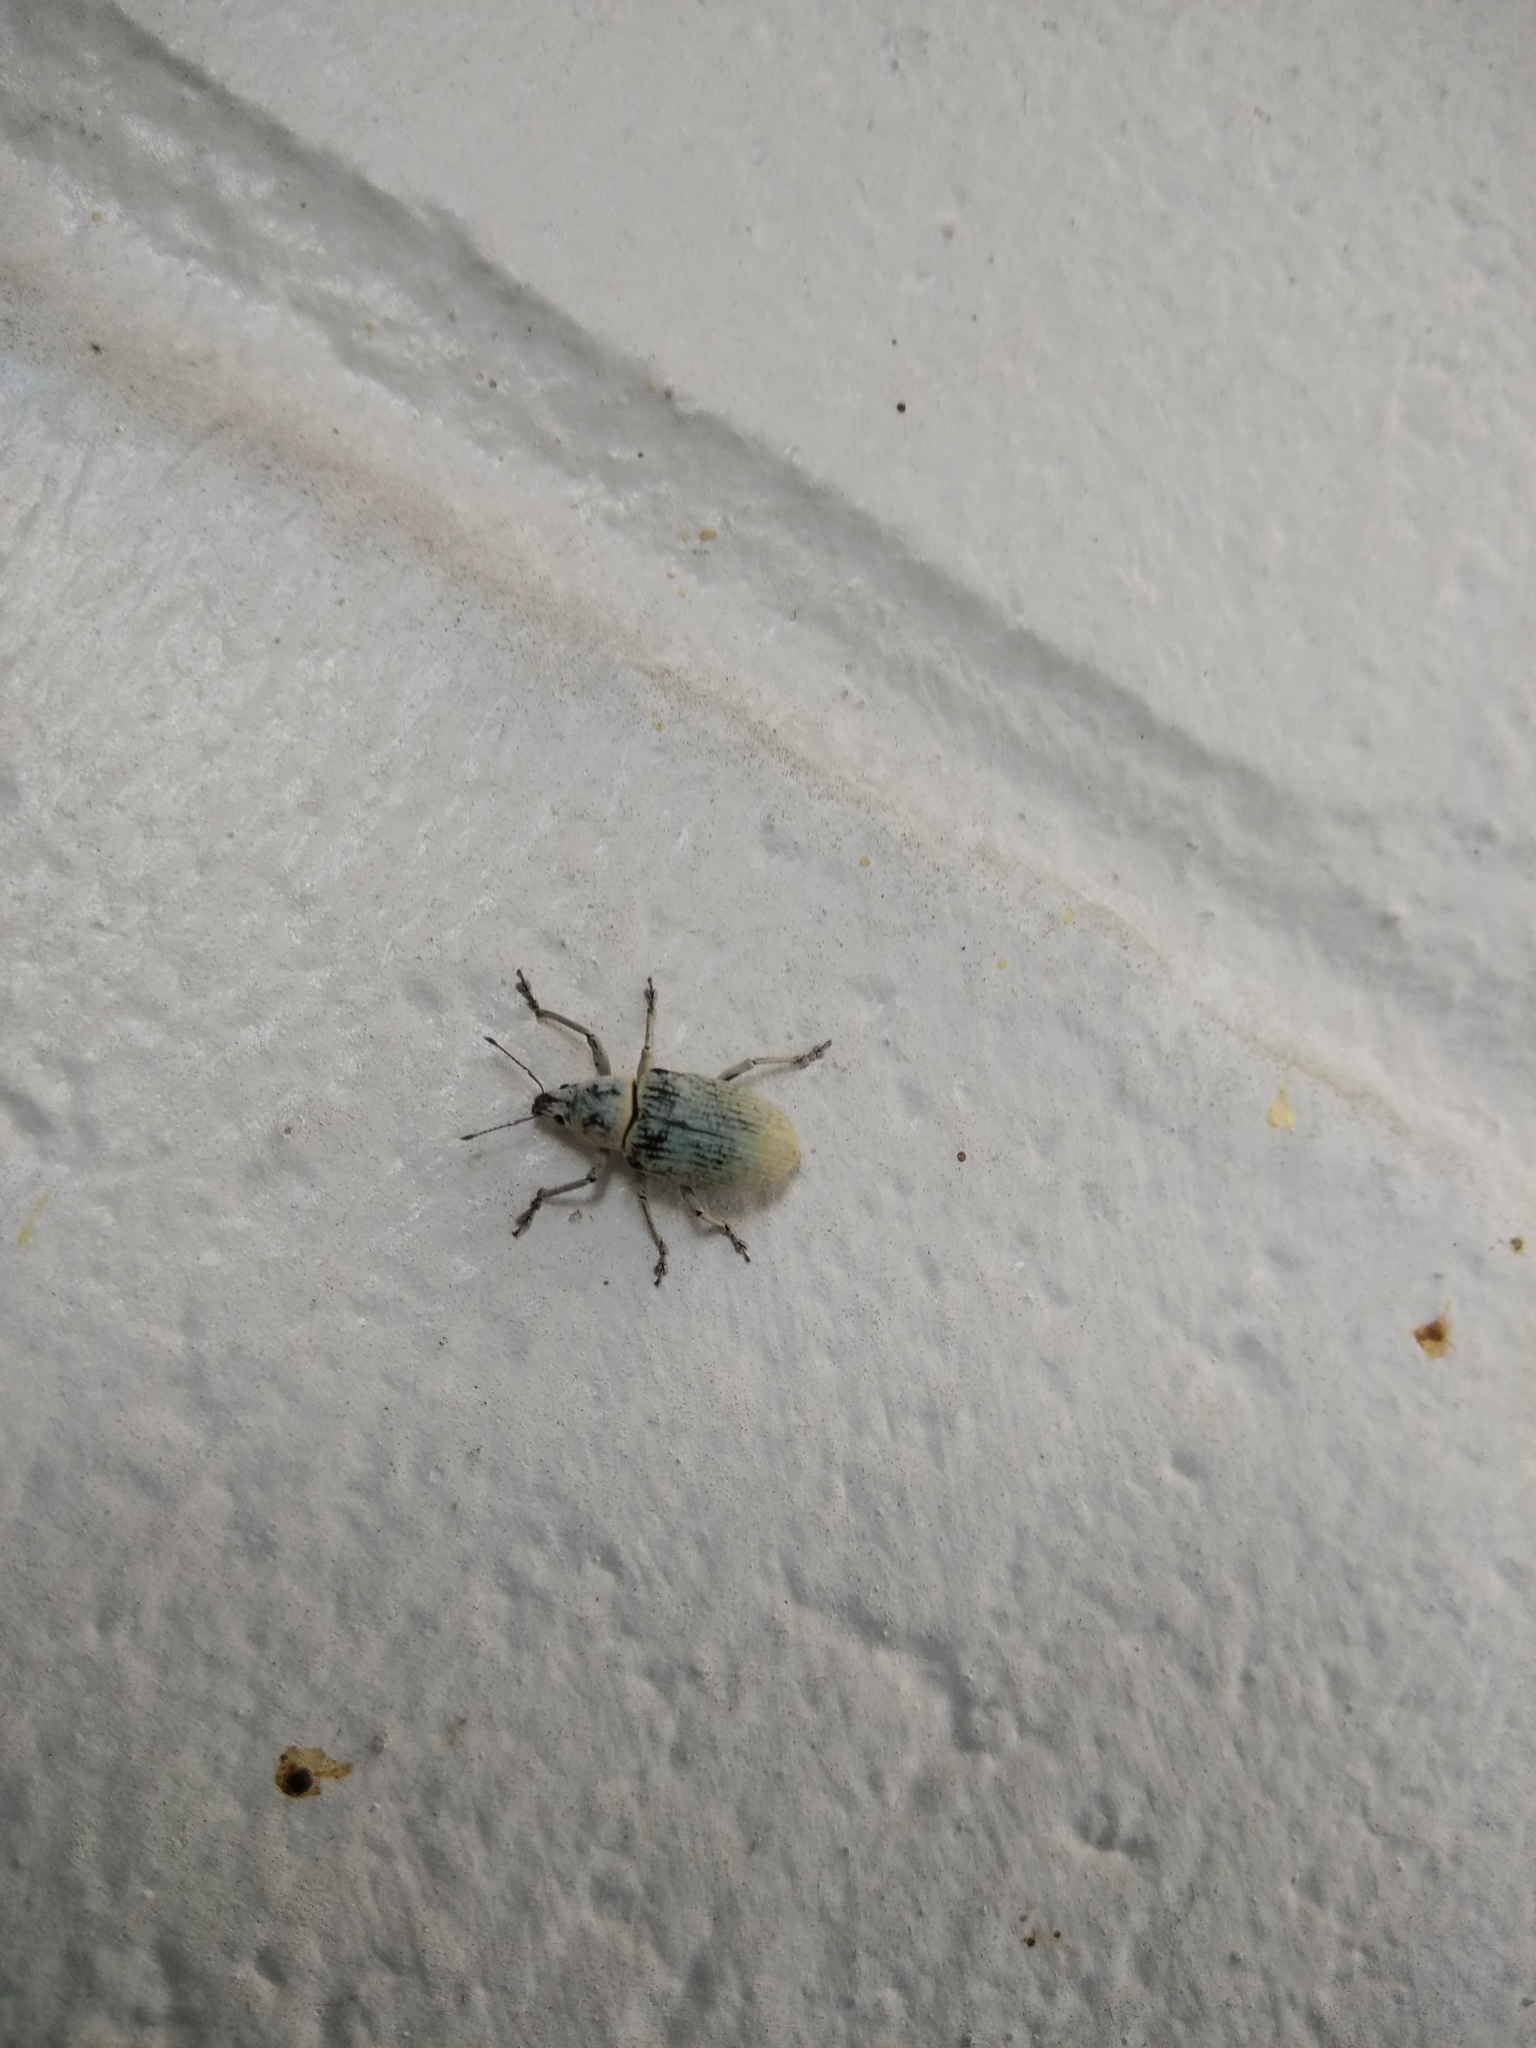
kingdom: Animalia
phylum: Arthropoda
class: Insecta
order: Coleoptera
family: Curculionidae
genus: Pachnaeus
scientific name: Pachnaeus opalus
